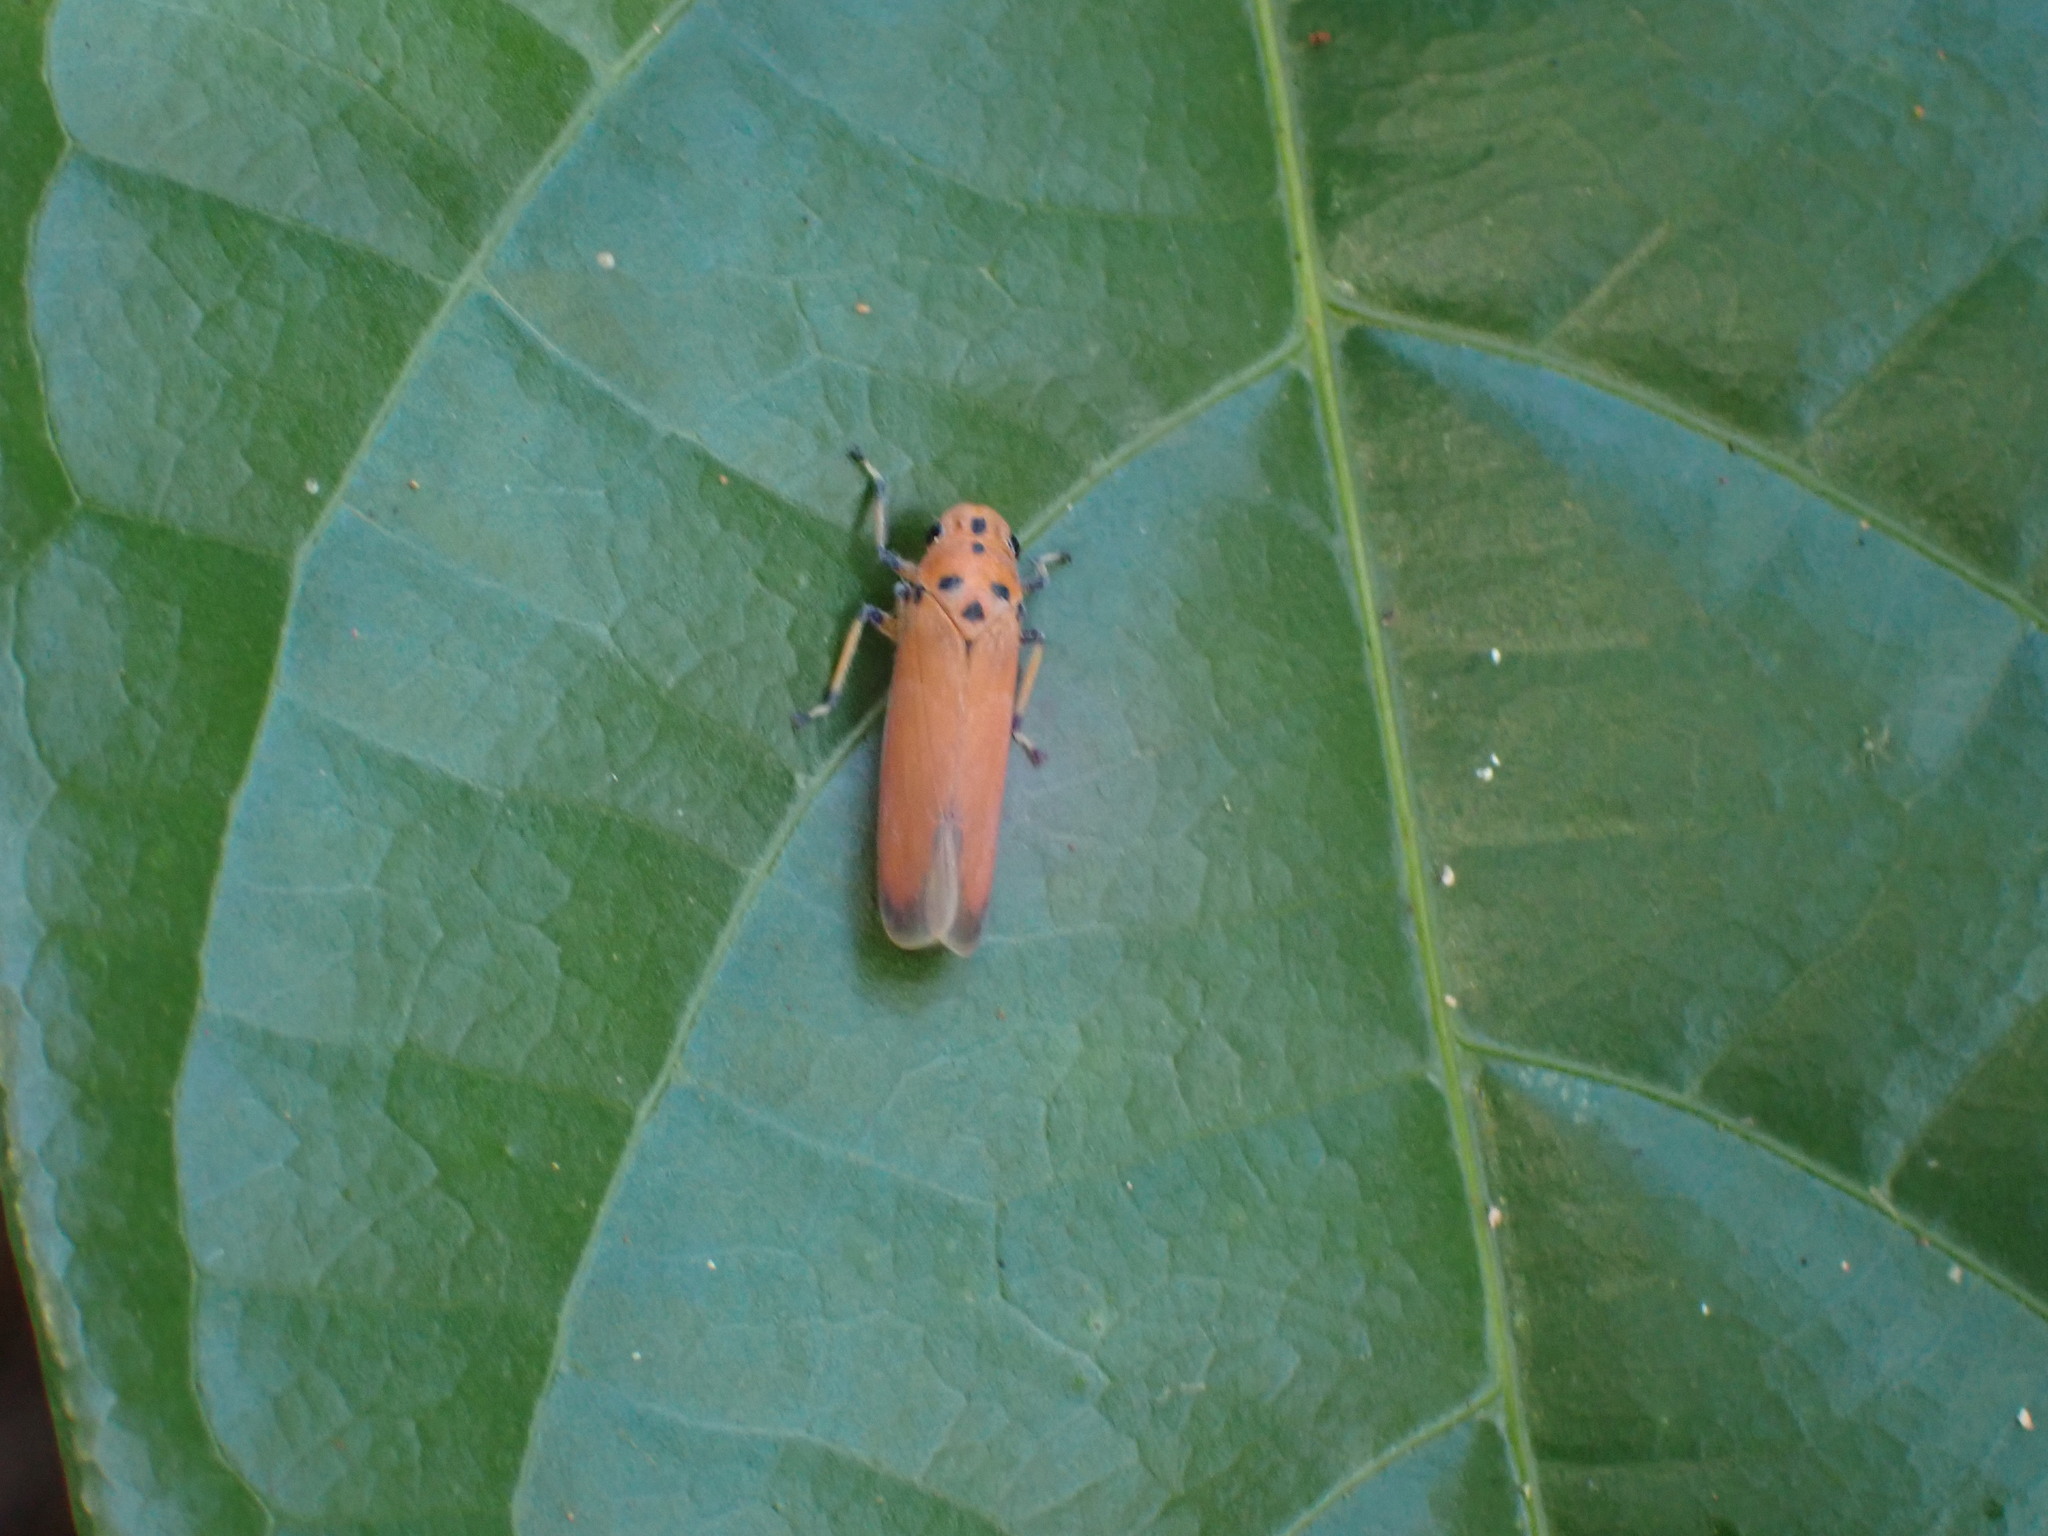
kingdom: Animalia
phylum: Arthropoda
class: Insecta
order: Hemiptera
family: Cicadellidae
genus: Bothrogonia
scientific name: Bothrogonia addita
